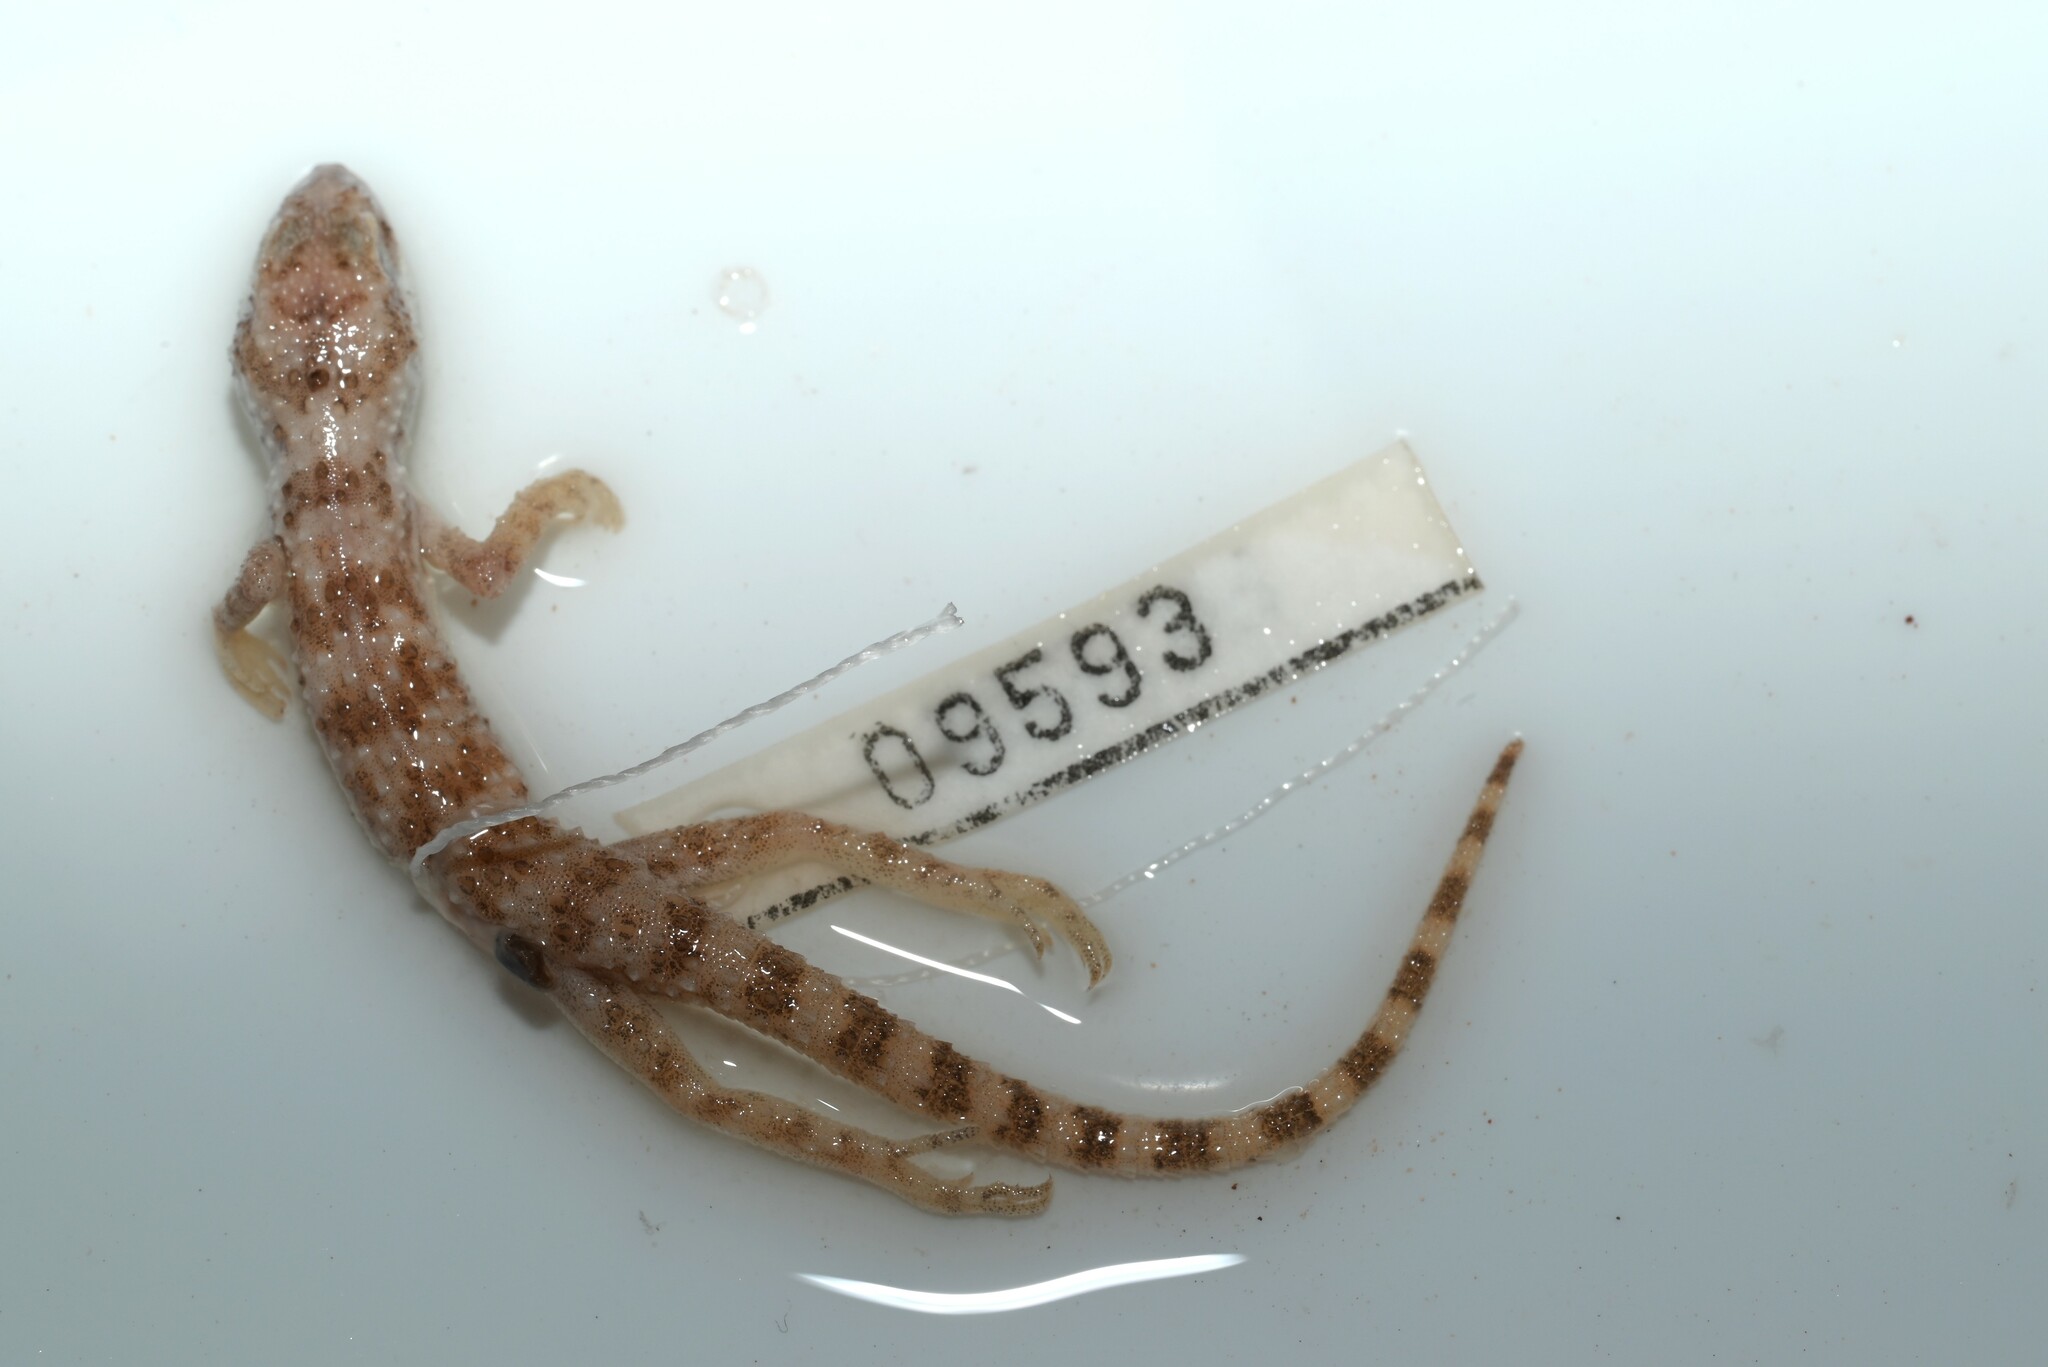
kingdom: Animalia
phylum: Chordata
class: Squamata
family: Gekkonidae
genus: Bunopus
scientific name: Bunopus tuberculatus
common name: Southern tuberculated gecko
